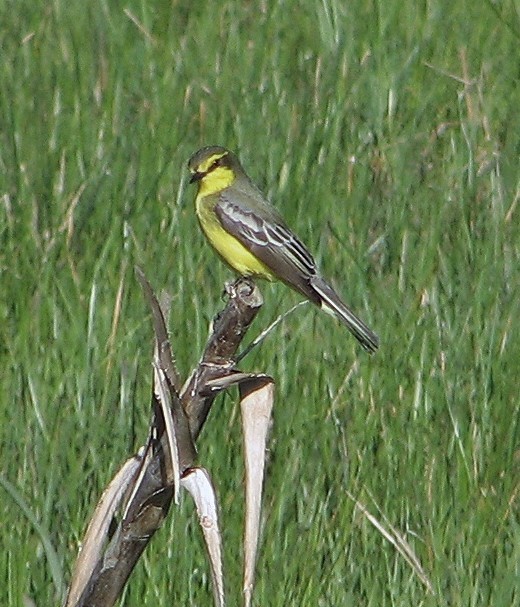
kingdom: Animalia
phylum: Chordata
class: Aves
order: Passeriformes
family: Tyrannidae
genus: Satrapa
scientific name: Satrapa icterophrys
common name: Yellow-browed tyrant
